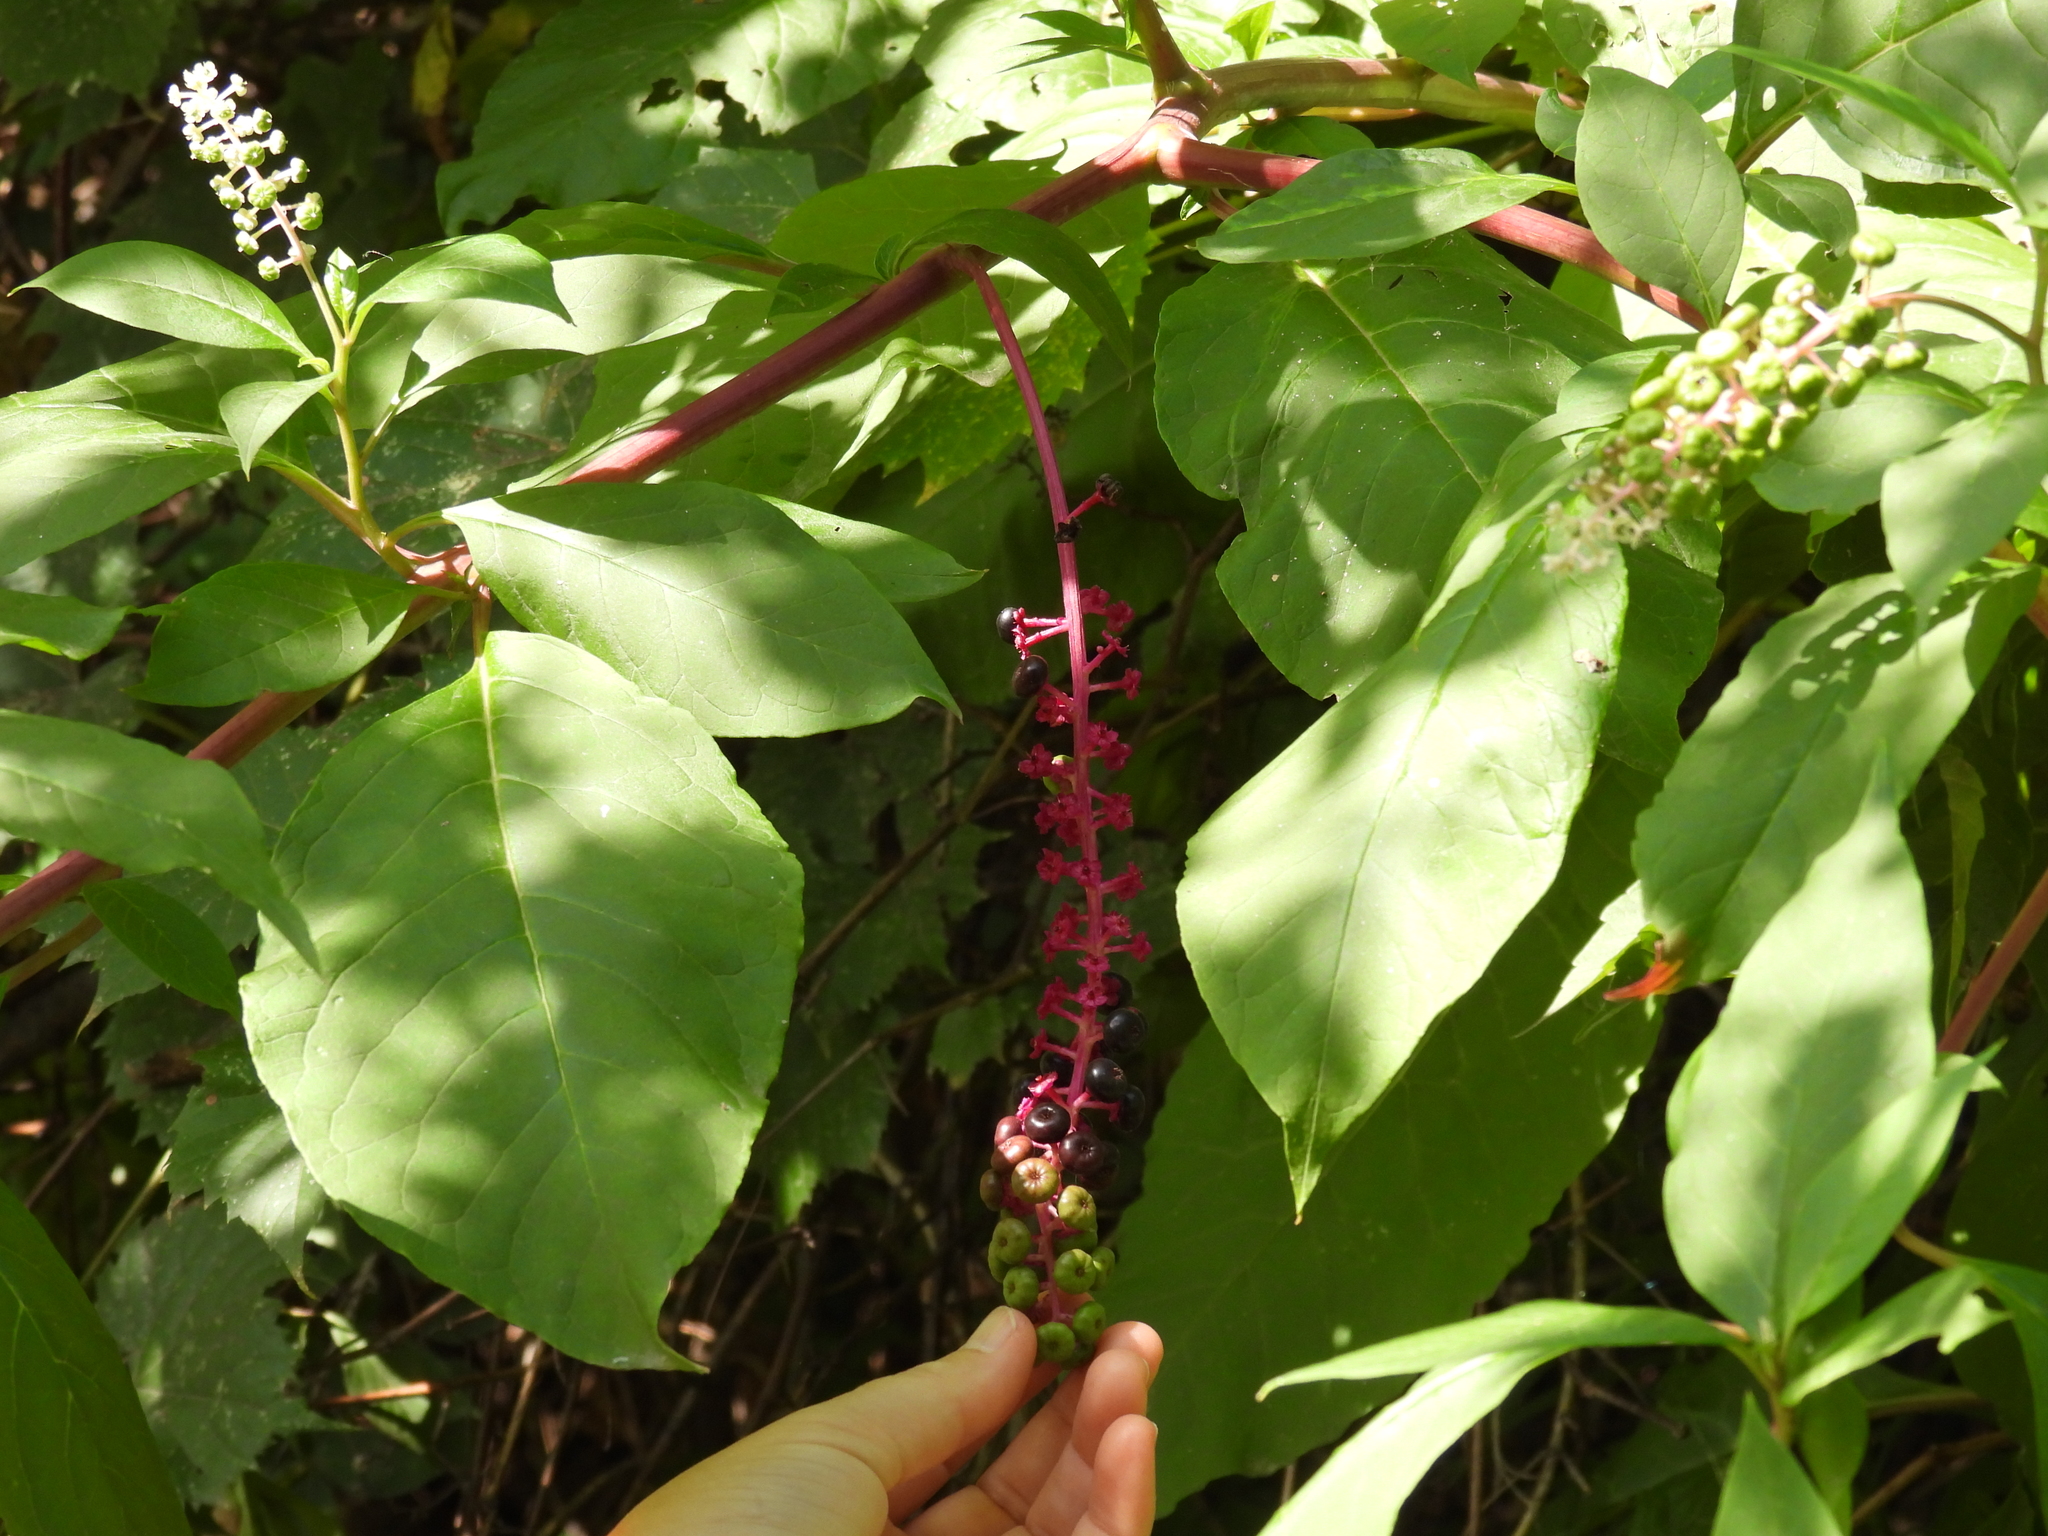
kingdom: Plantae
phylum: Tracheophyta
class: Magnoliopsida
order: Caryophyllales
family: Phytolaccaceae
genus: Phytolacca
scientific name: Phytolacca americana
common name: American pokeweed
